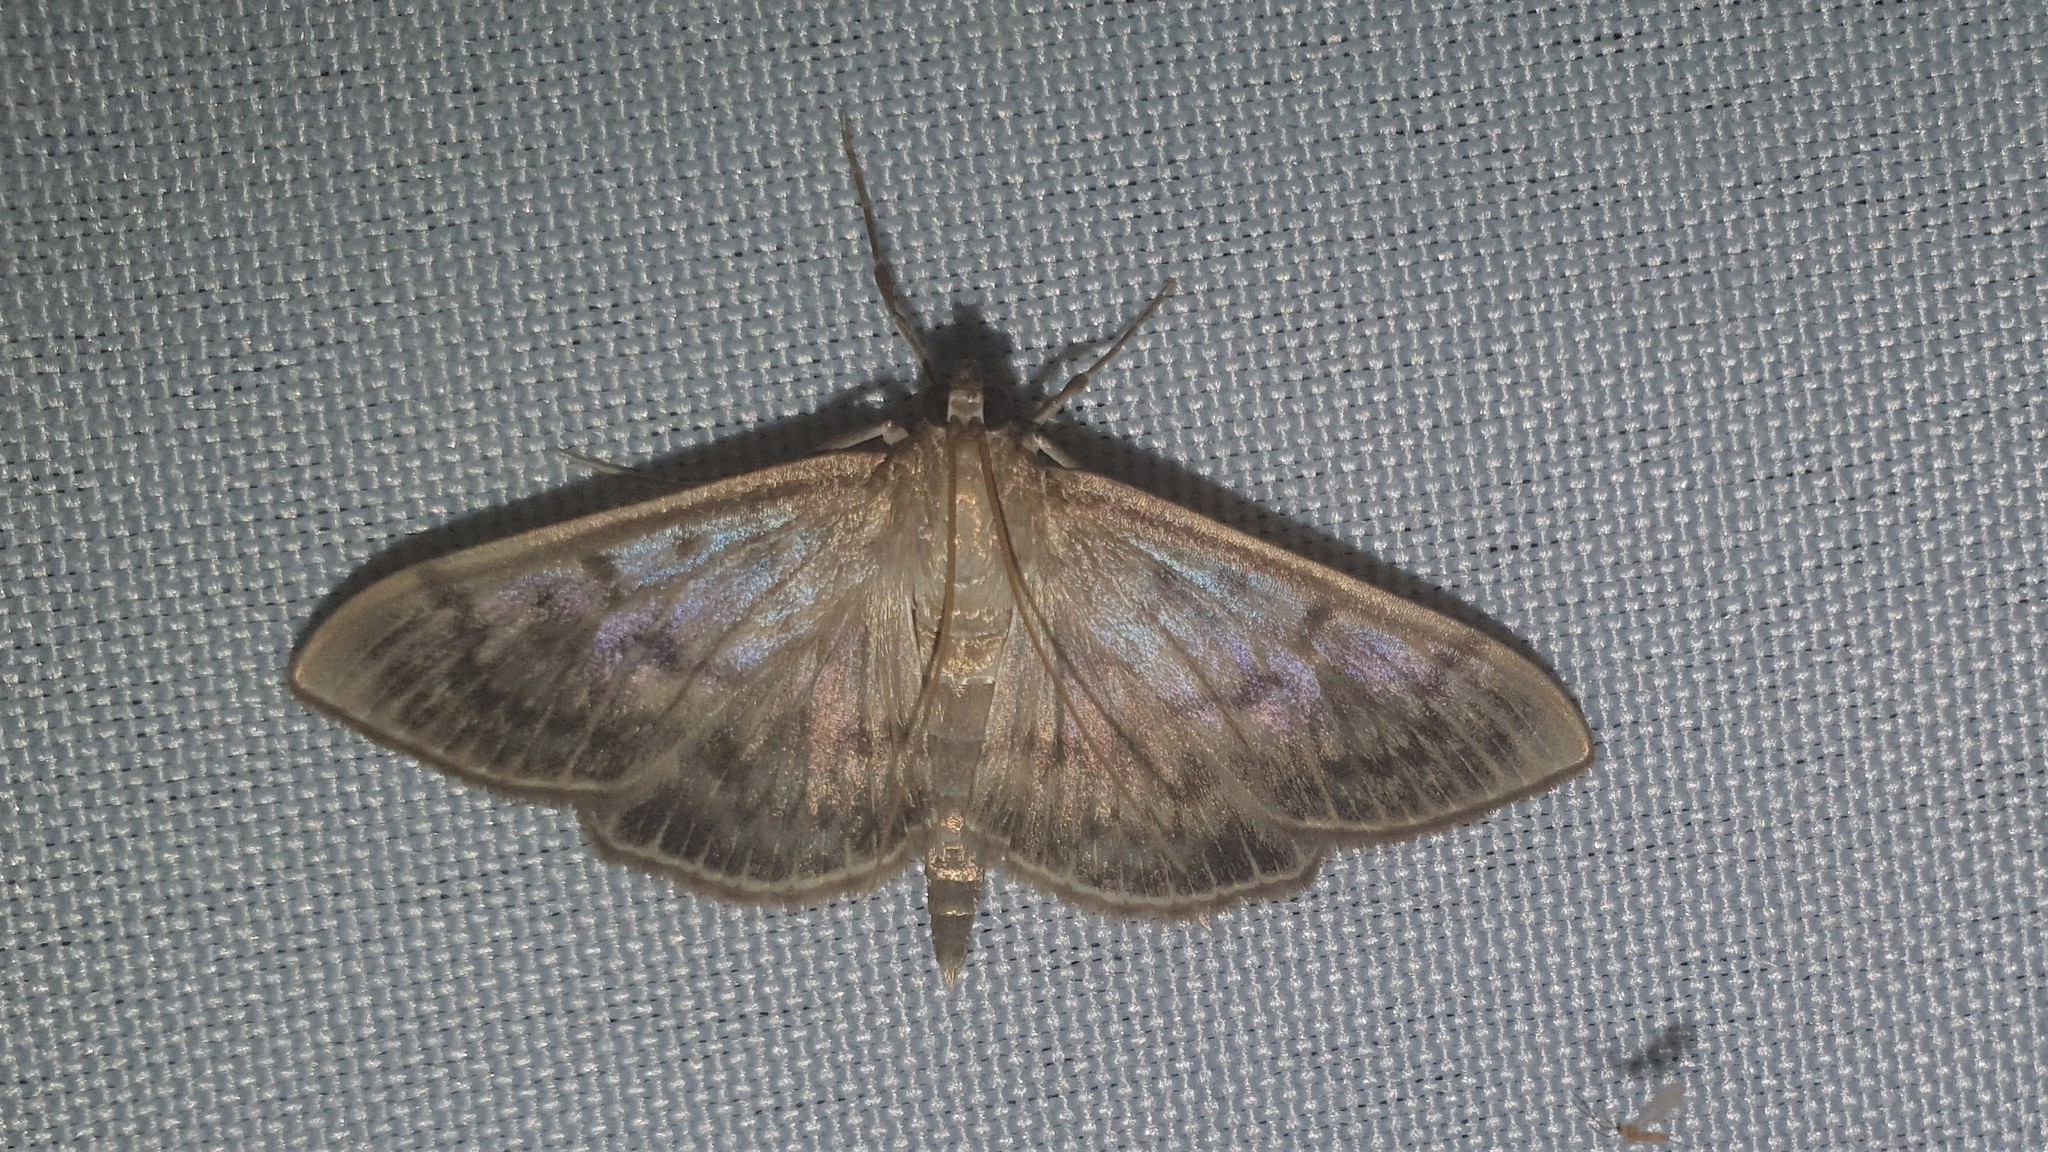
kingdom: Animalia
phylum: Arthropoda
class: Insecta
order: Lepidoptera
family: Crambidae
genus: Patania
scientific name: Patania ruralis
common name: Mother of pearl
